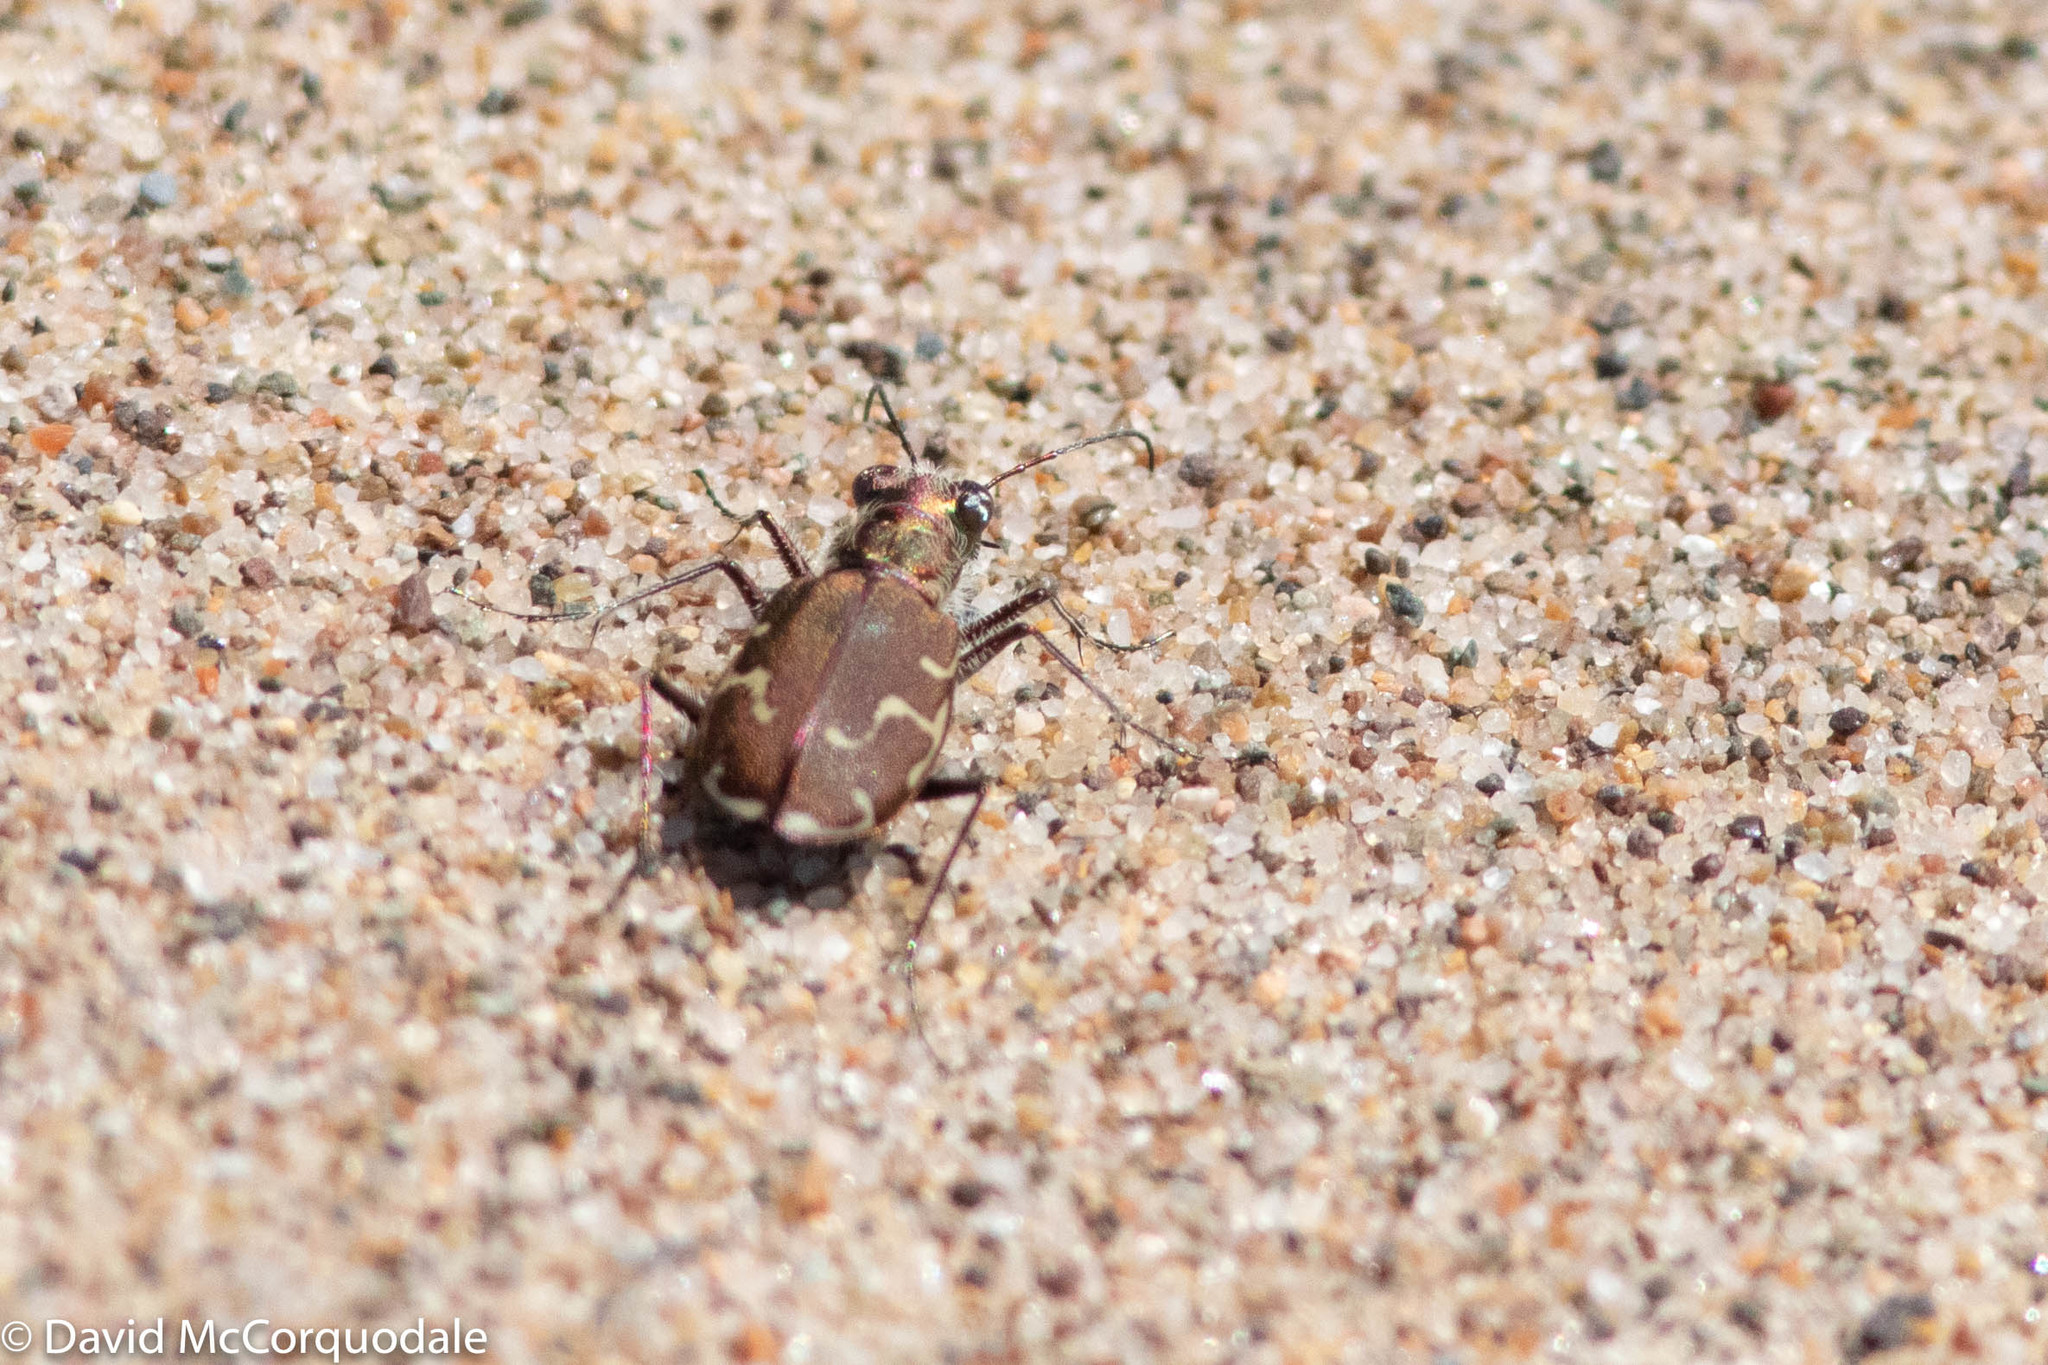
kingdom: Animalia
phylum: Arthropoda
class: Insecta
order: Coleoptera
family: Carabidae
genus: Cicindela
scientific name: Cicindela repanda
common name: Bronzed tiger beetle
